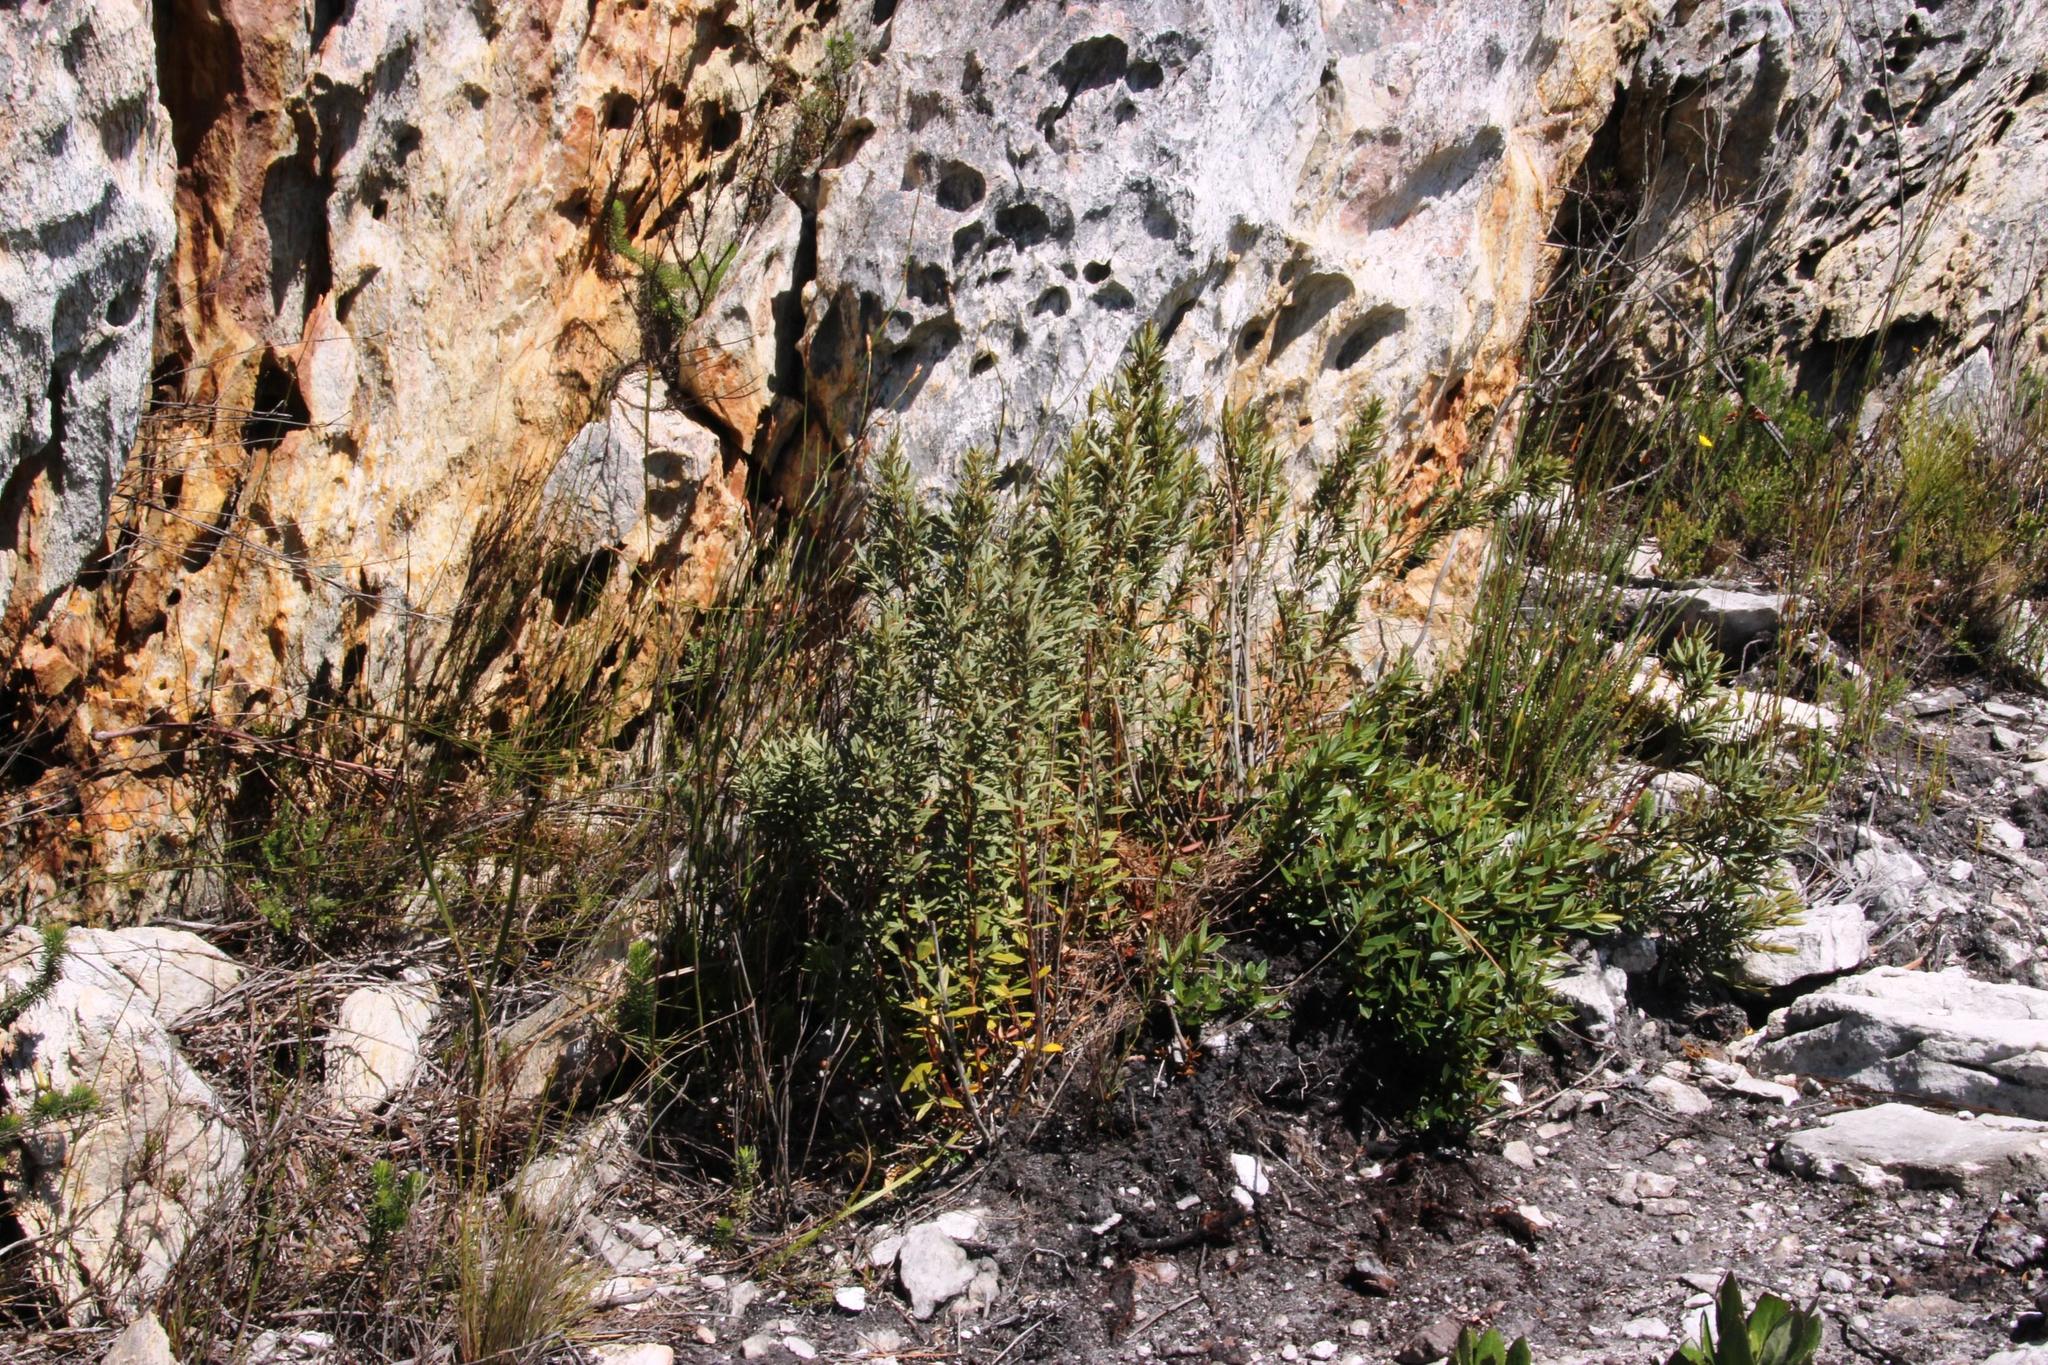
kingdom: Plantae
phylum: Tracheophyta
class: Magnoliopsida
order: Cornales
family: Grubbiaceae
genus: Grubbia
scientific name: Grubbia tomentosa
